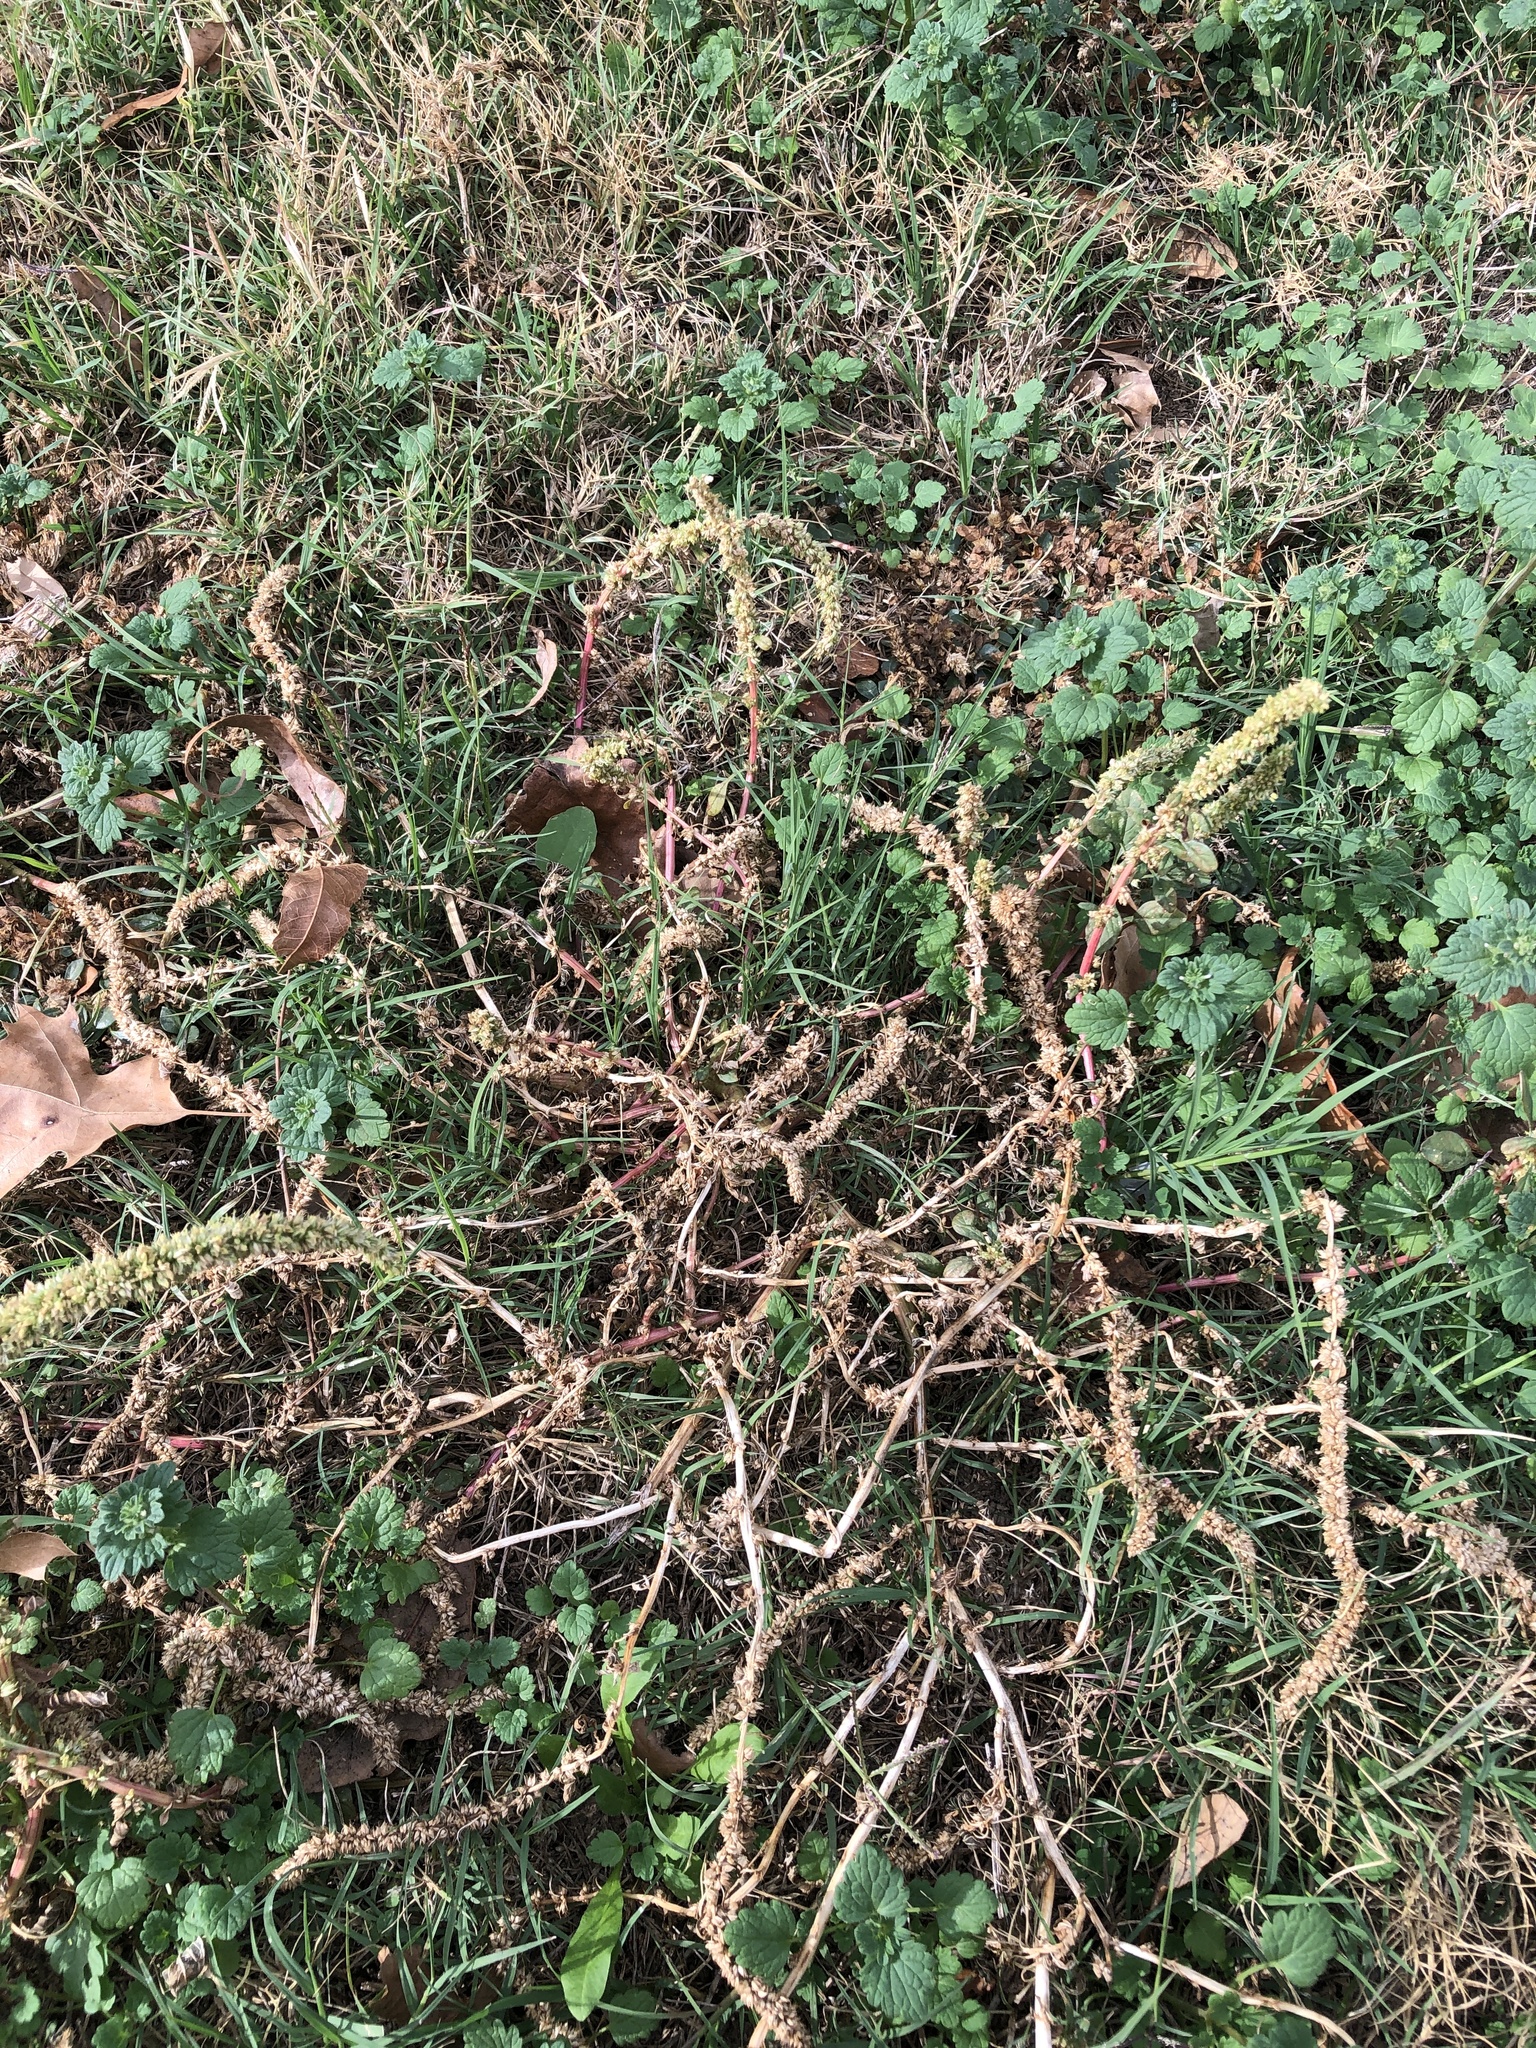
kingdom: Plantae
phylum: Tracheophyta
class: Magnoliopsida
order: Caryophyllales
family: Amaranthaceae
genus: Amaranthus
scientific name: Amaranthus palmeri
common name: Dioecious amaranth
